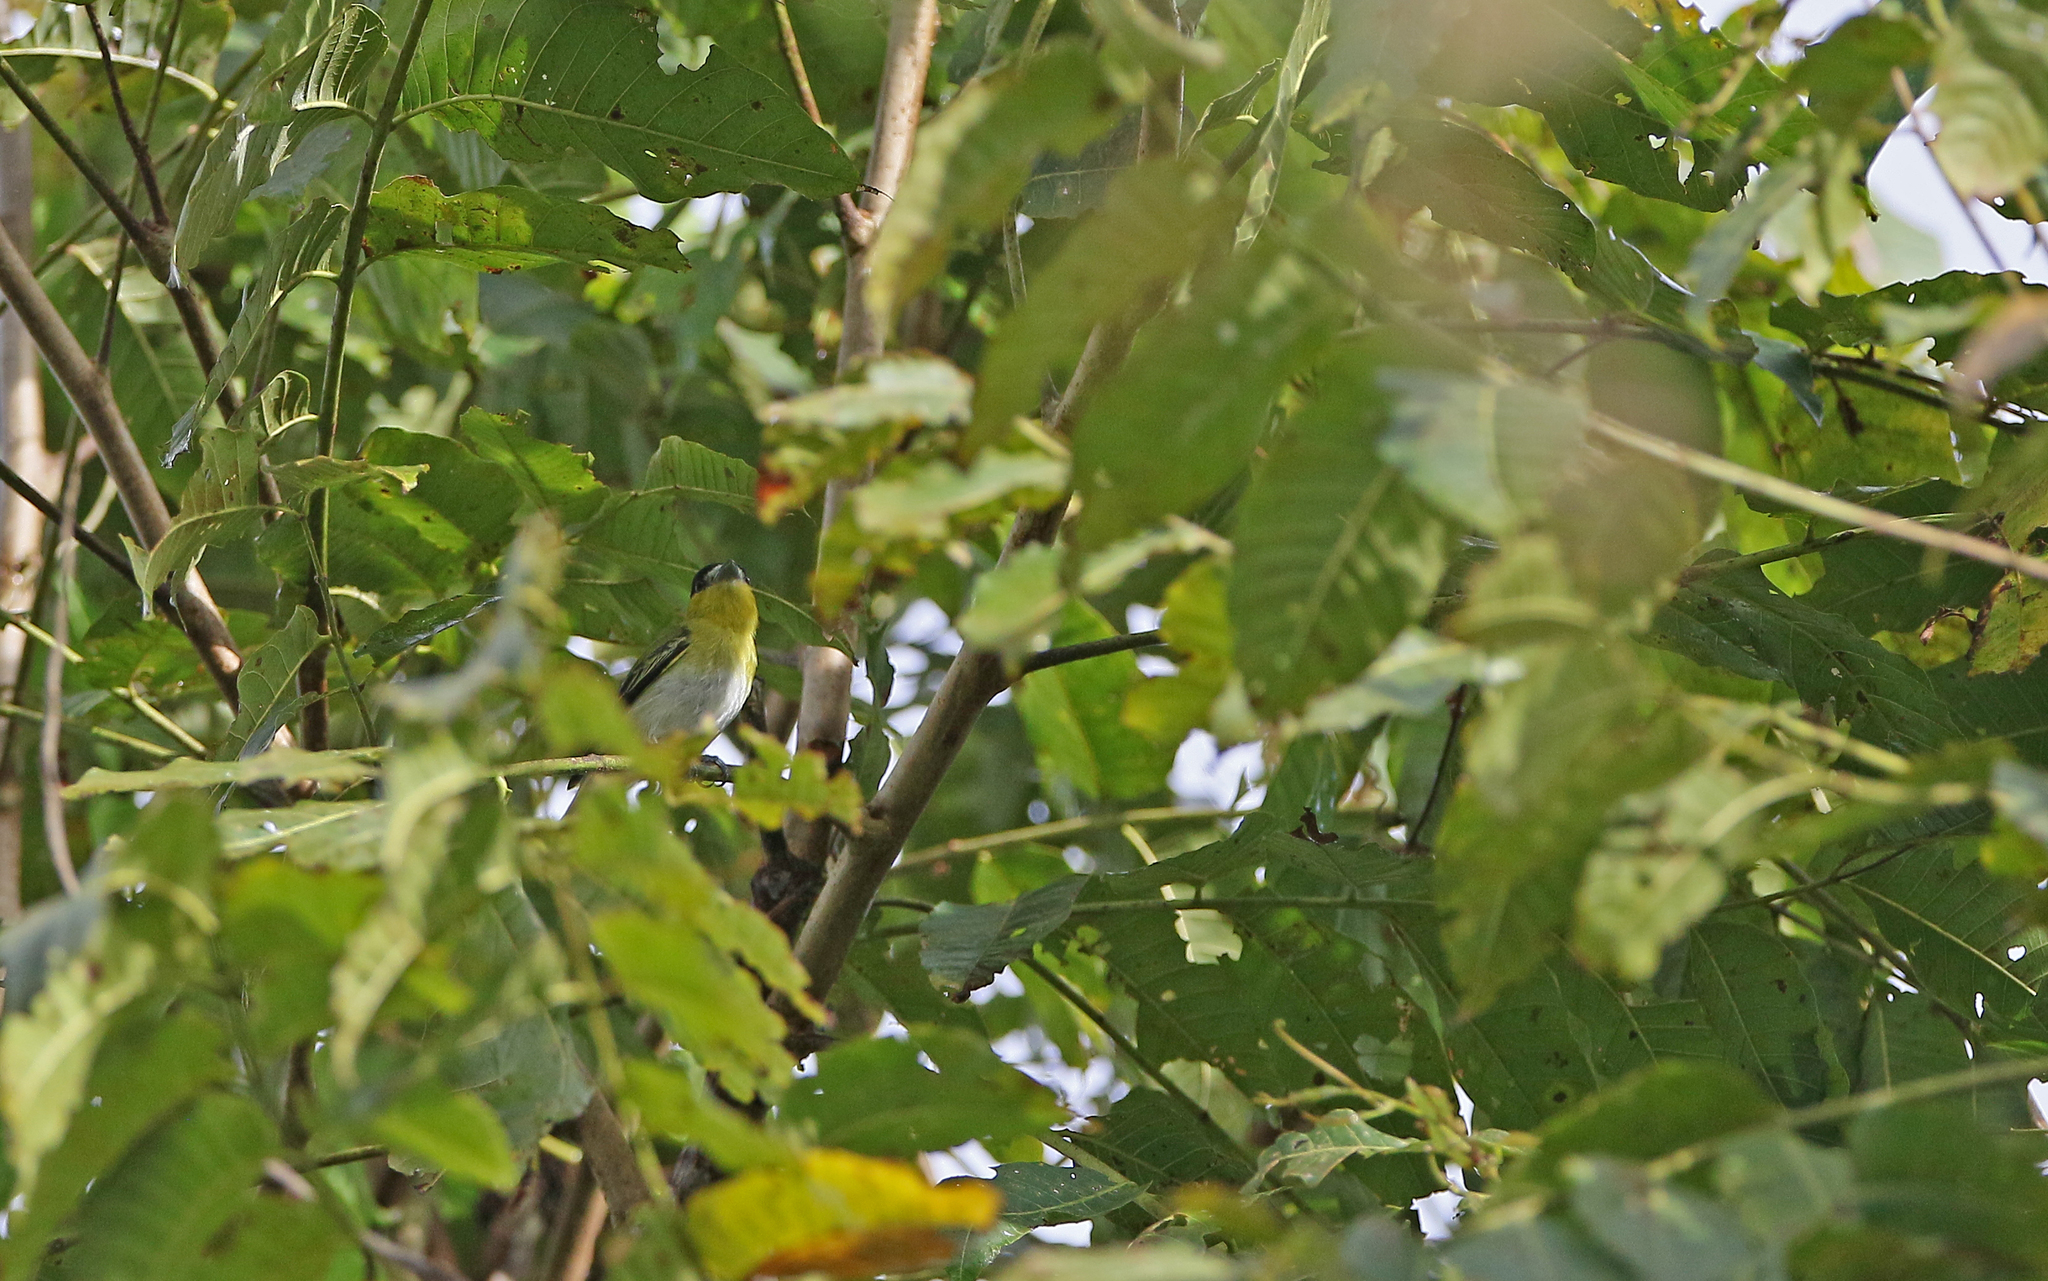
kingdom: Animalia
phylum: Chordata
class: Aves
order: Passeriformes
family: Cotingidae
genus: Pachyramphus
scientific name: Pachyramphus viridis
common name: Green-backed becard
